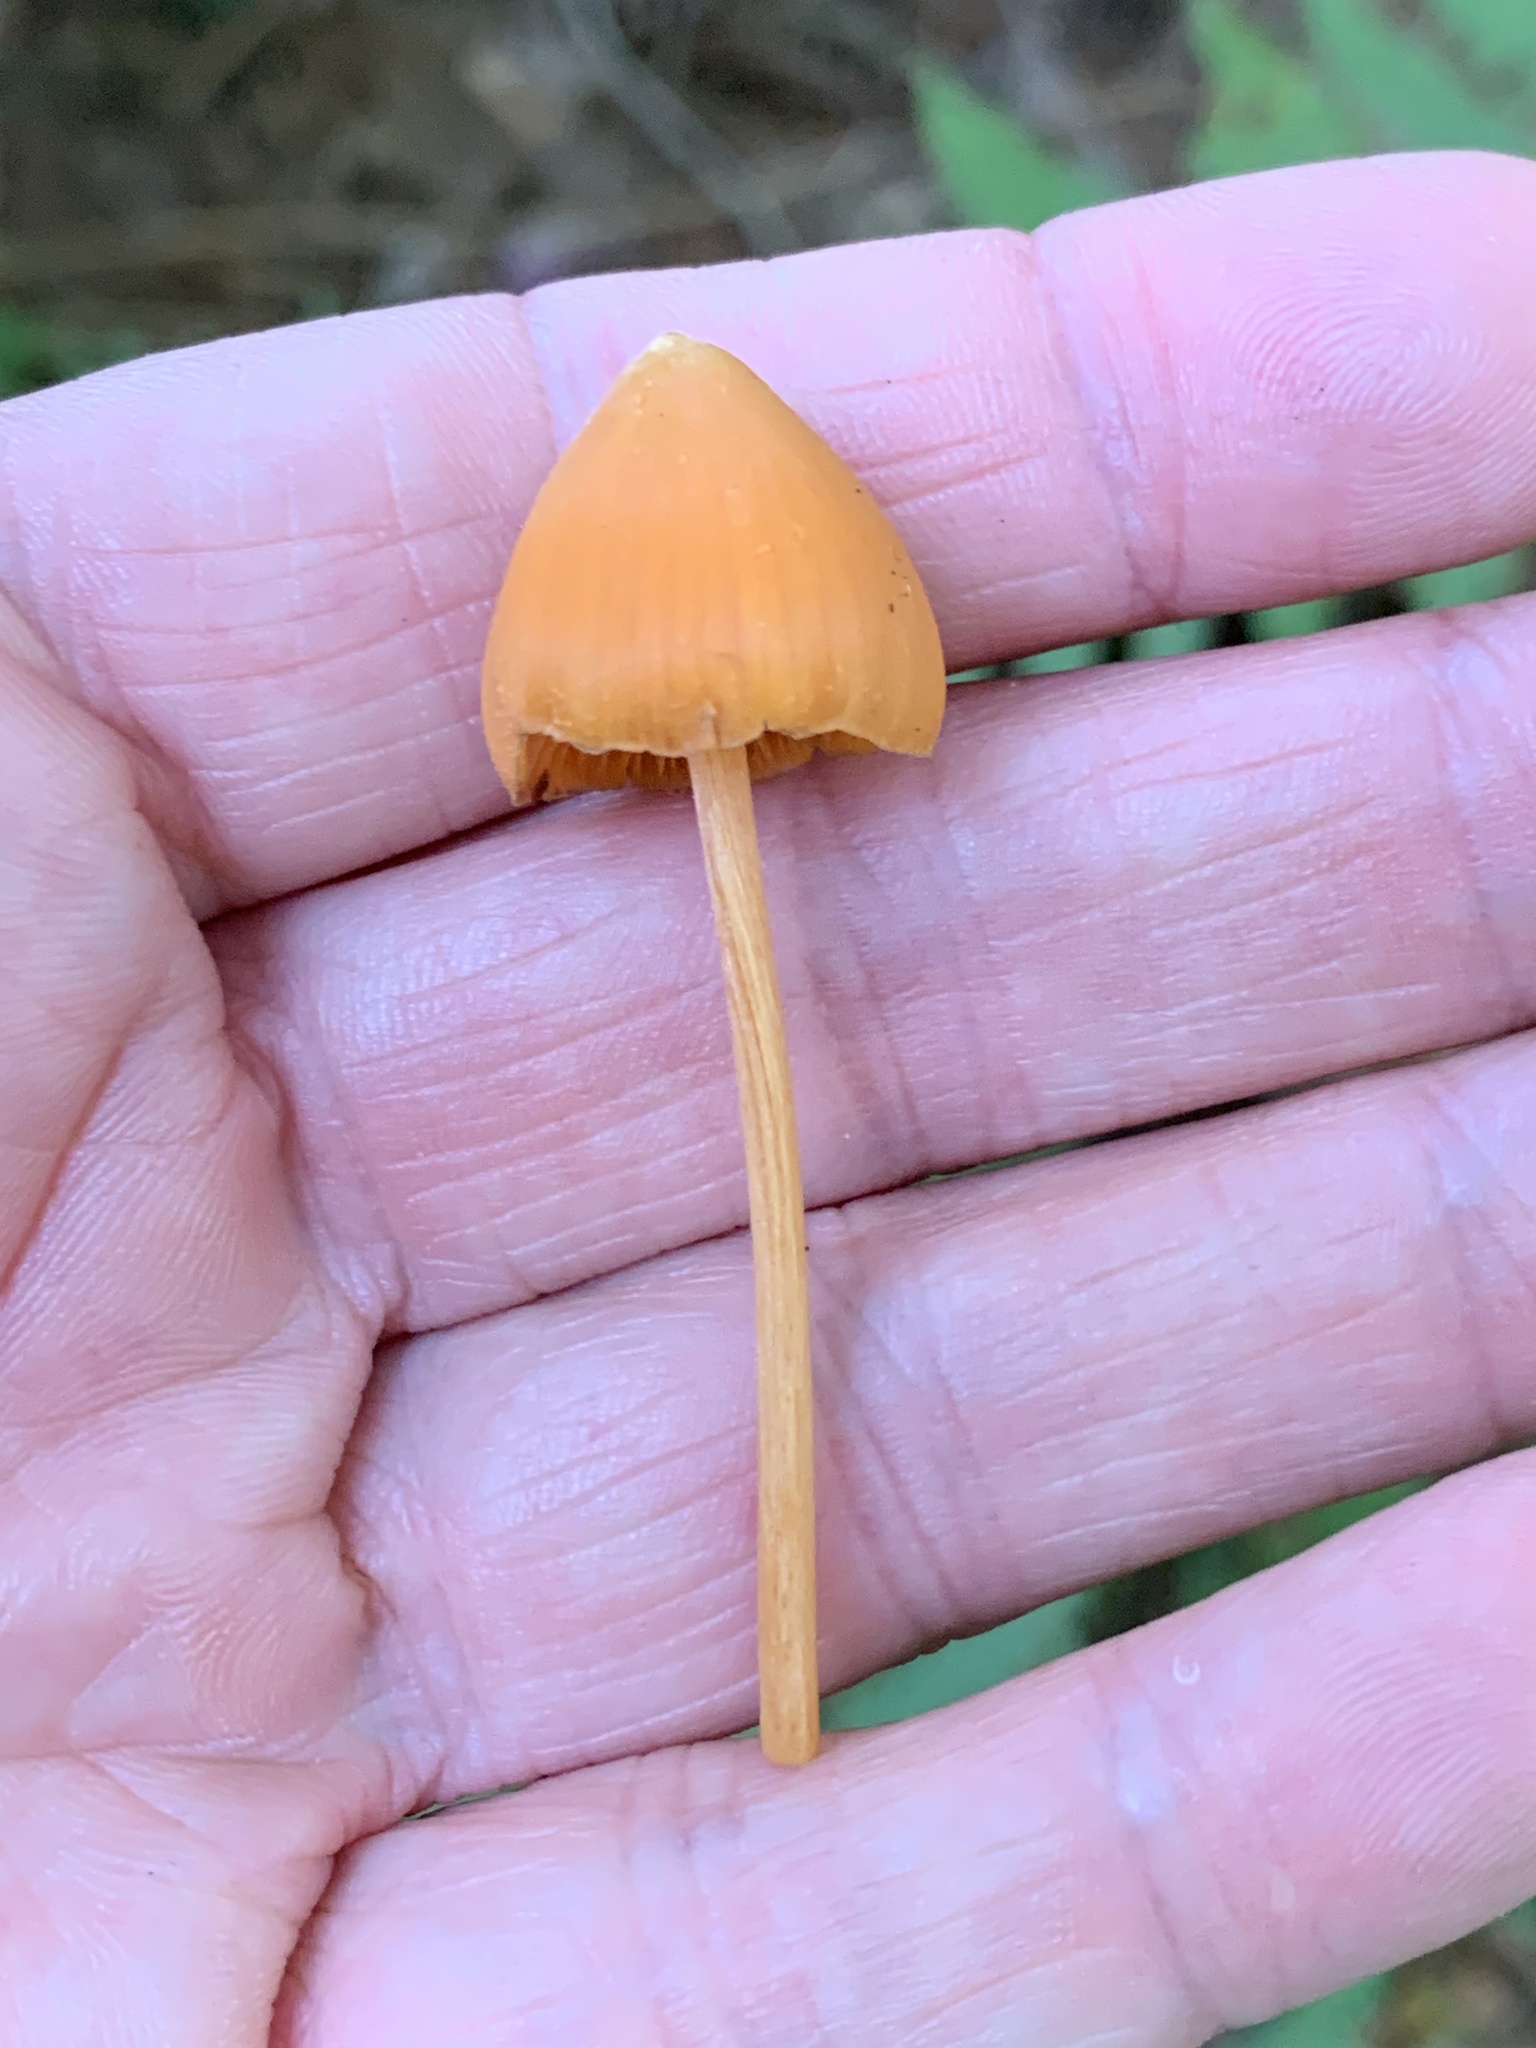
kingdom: Fungi
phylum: Basidiomycota
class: Agaricomycetes
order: Agaricales
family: Entolomataceae
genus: Entoloma
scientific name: Entoloma quadratum
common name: Salmon pinkgill
